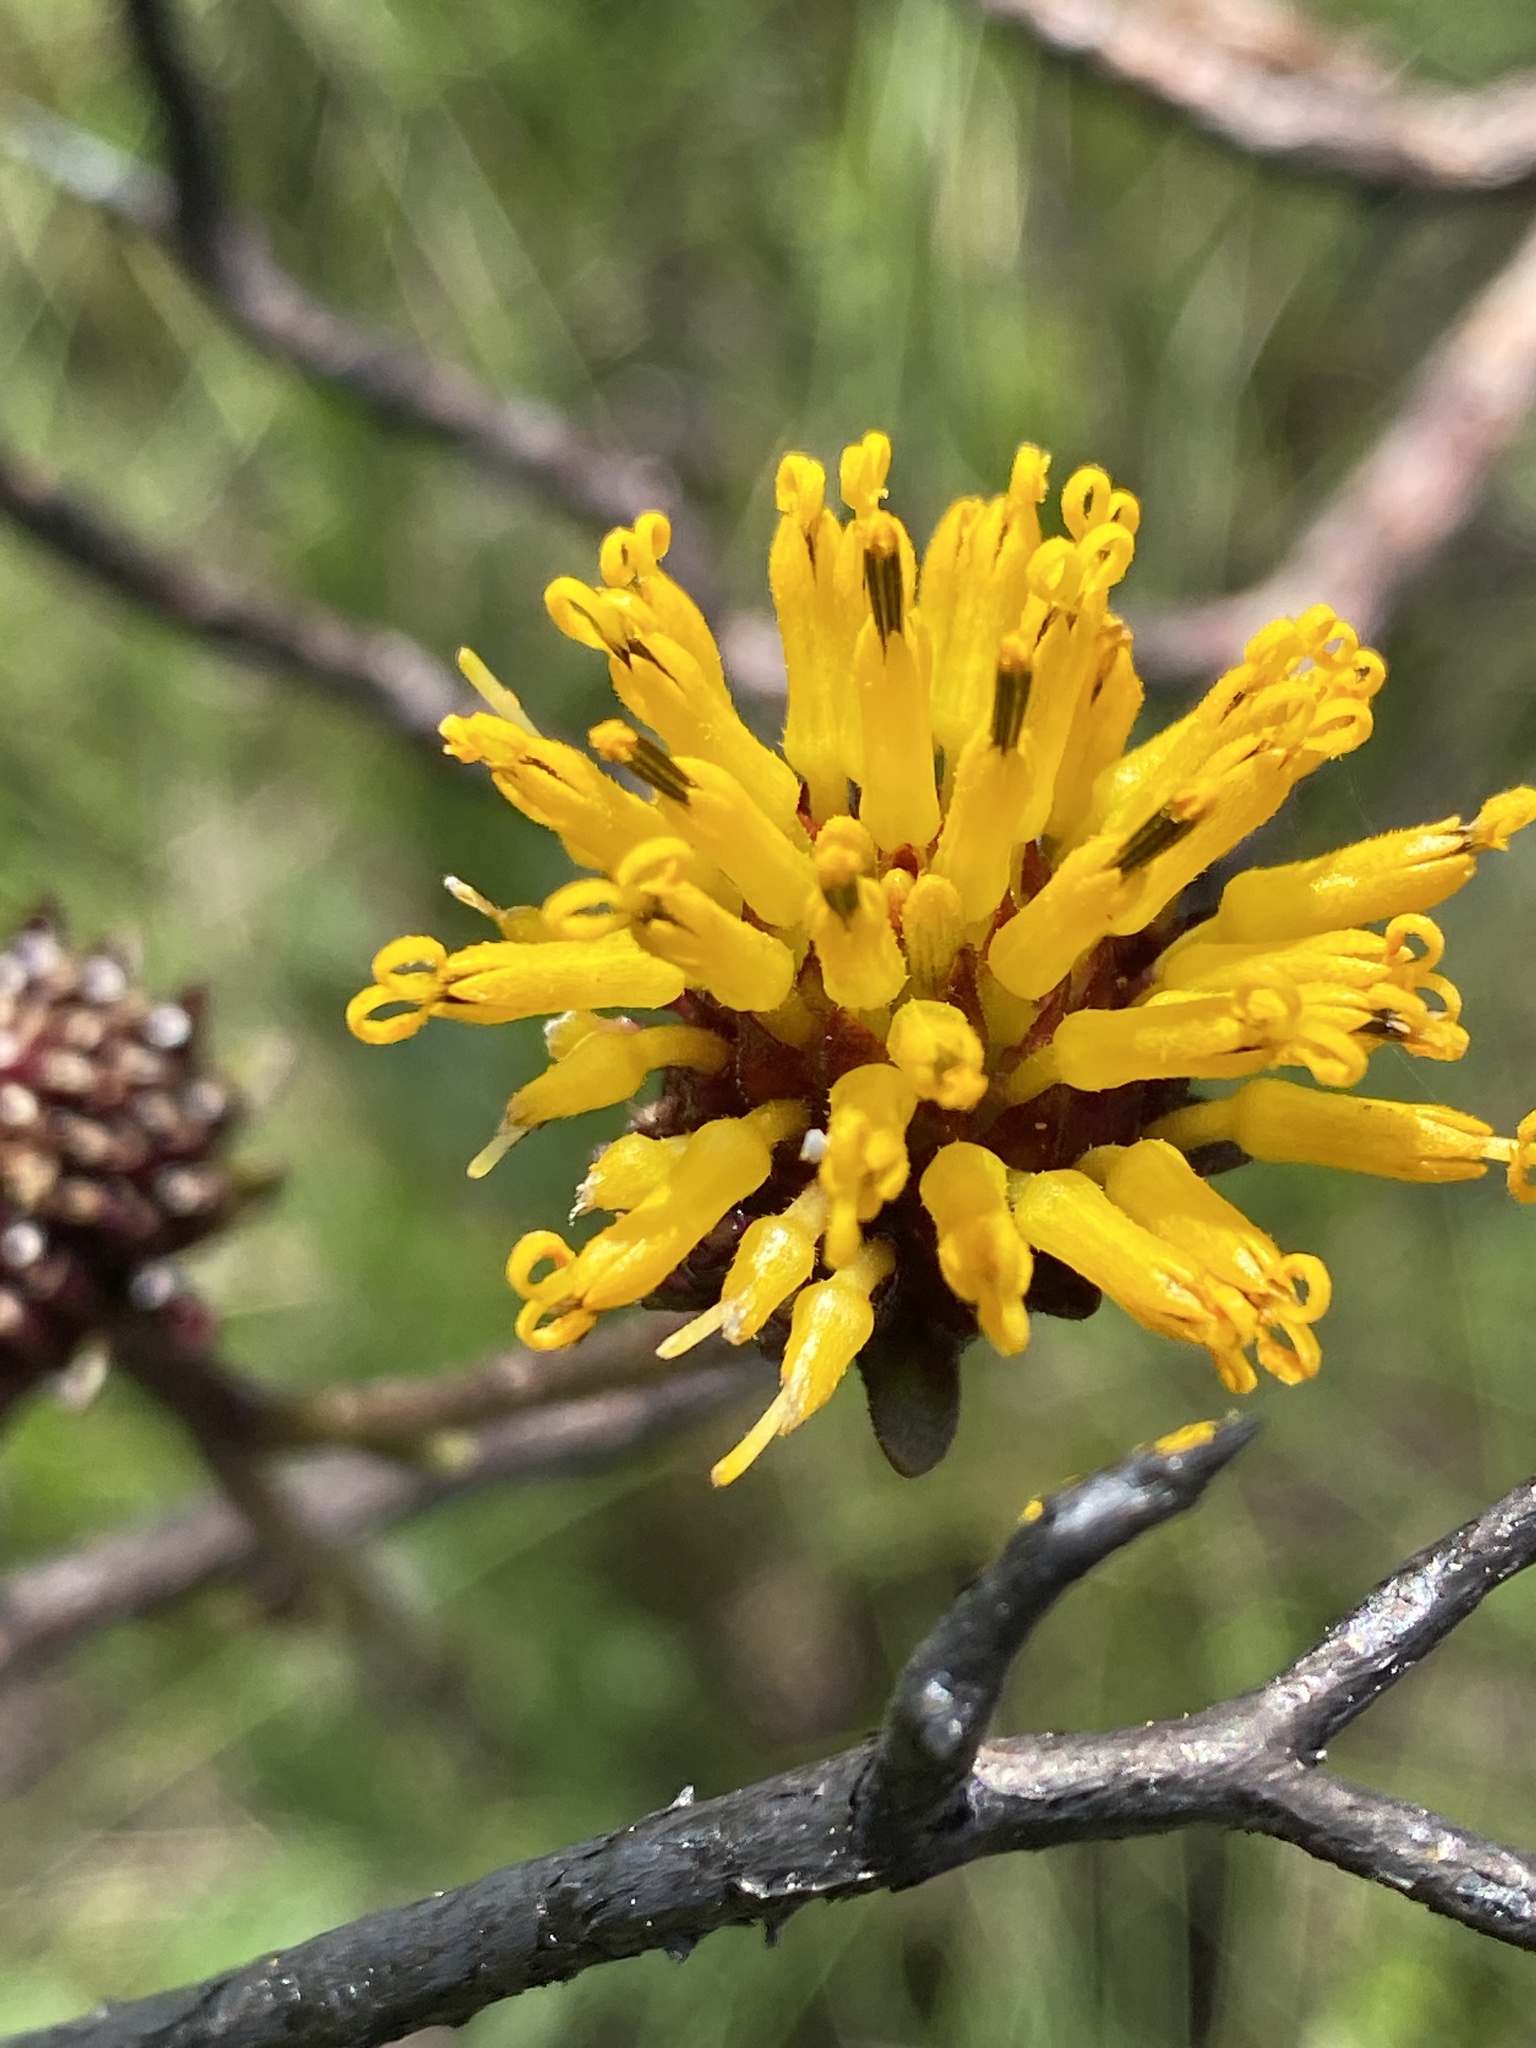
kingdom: Plantae
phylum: Tracheophyta
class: Magnoliopsida
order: Asterales
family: Asteraceae
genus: Verbesina
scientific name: Verbesina chapmanii
